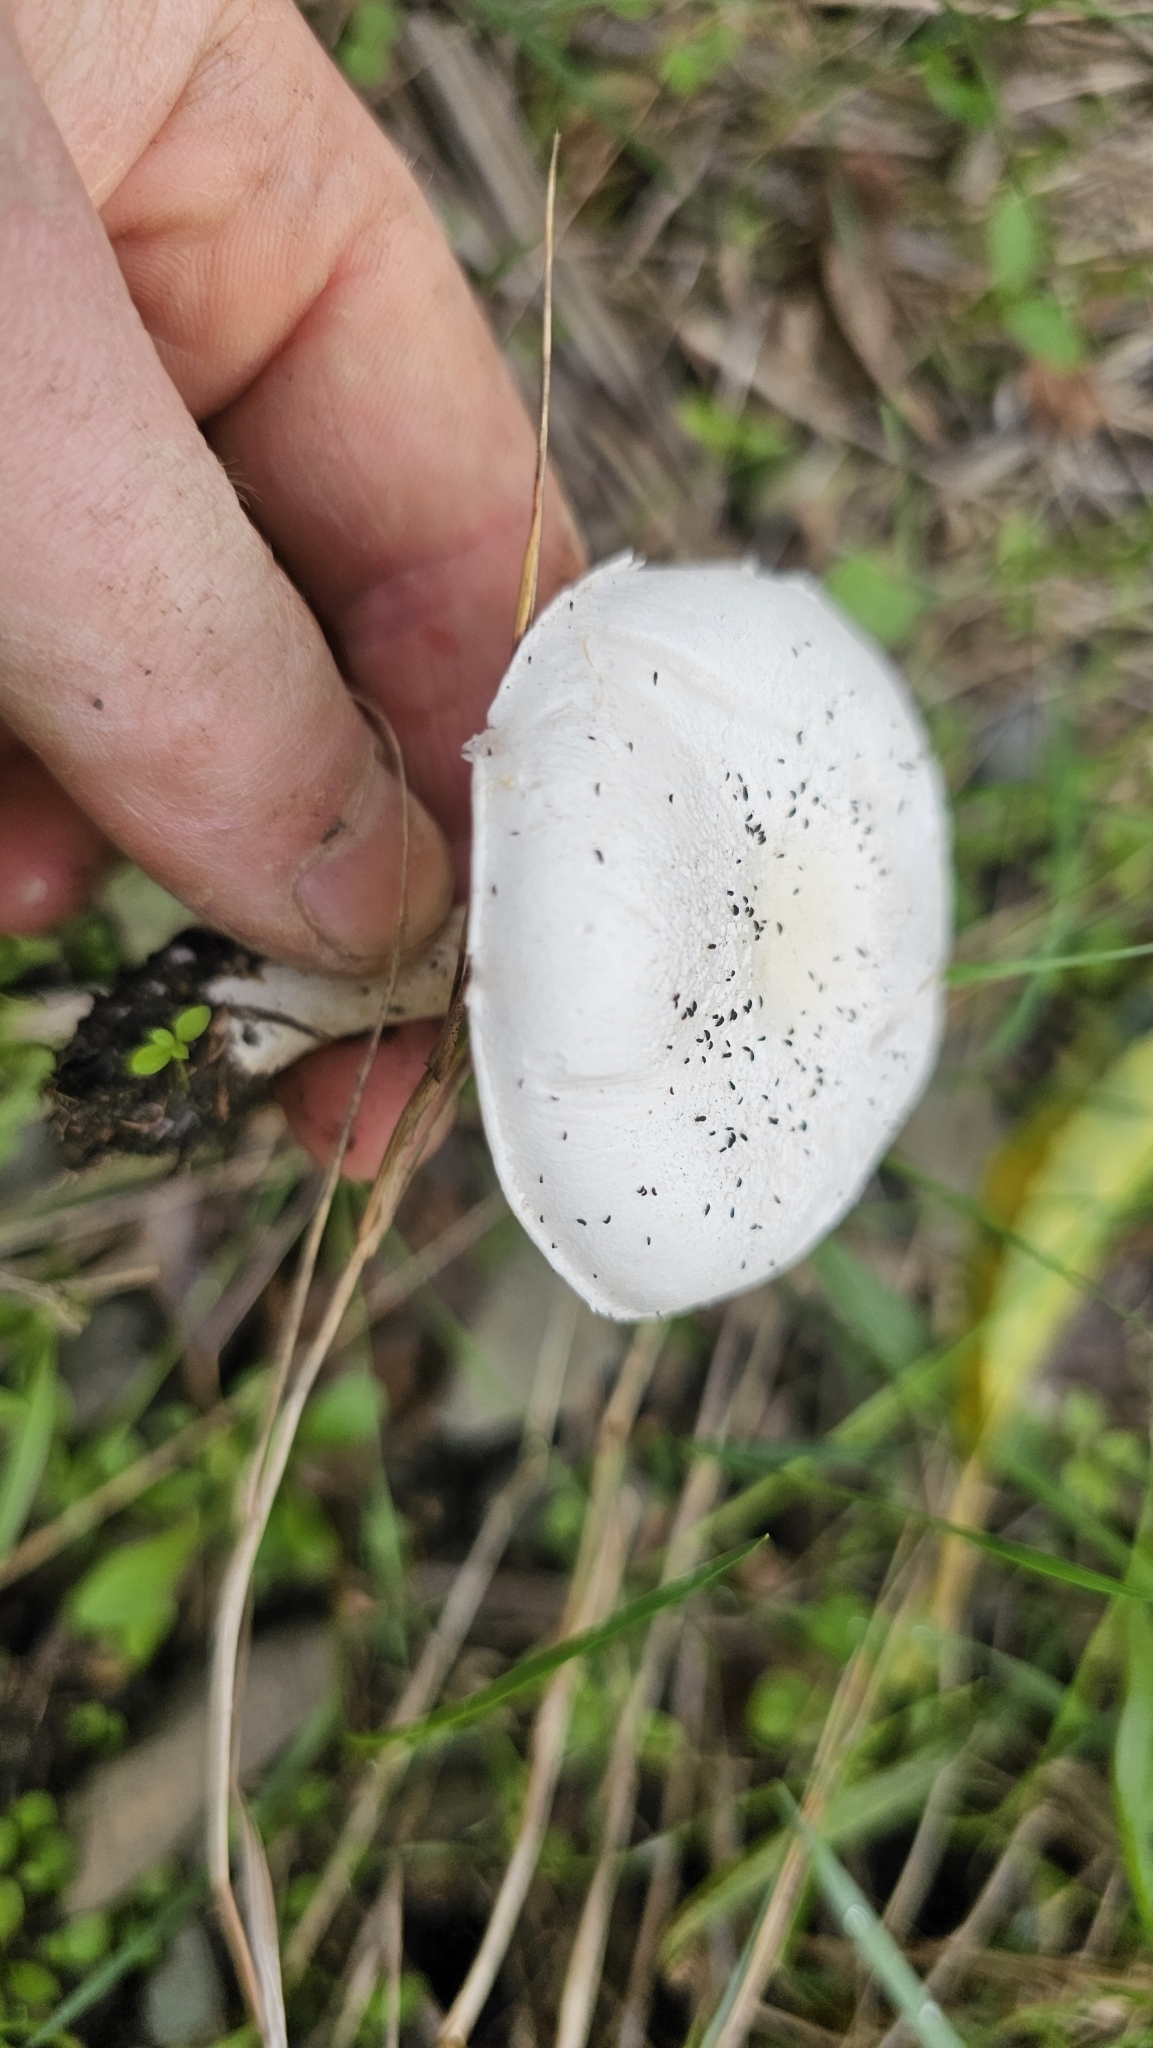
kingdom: Fungi
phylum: Basidiomycota
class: Agaricomycetes
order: Agaricales
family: Agaricaceae
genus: Leucoagaricus
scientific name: Leucoagaricus leucothites
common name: White dapperling
